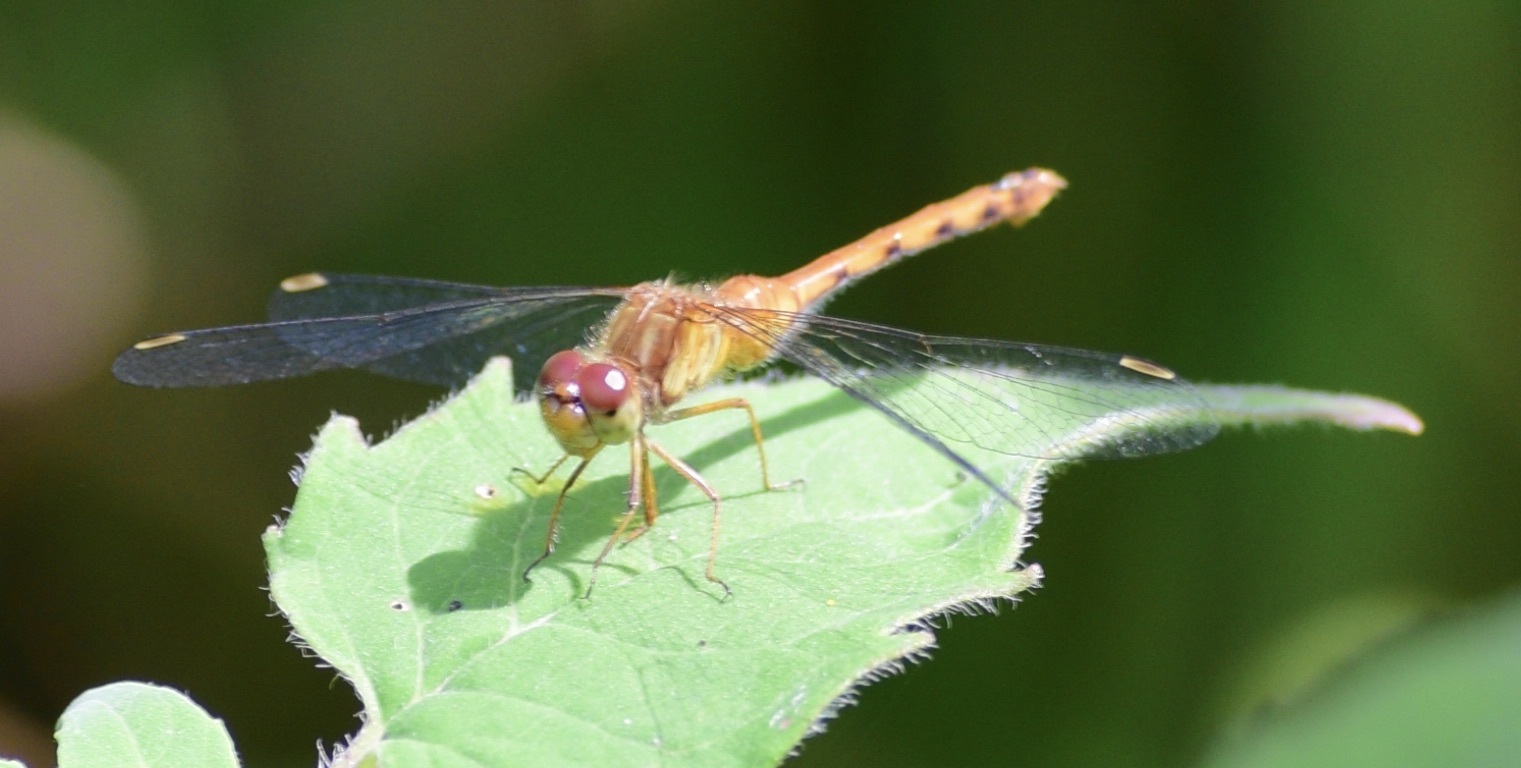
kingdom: Animalia
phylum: Arthropoda
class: Insecta
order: Odonata
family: Libellulidae
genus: Sympetrum
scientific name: Sympetrum vicinum
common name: Autumn meadowhawk
